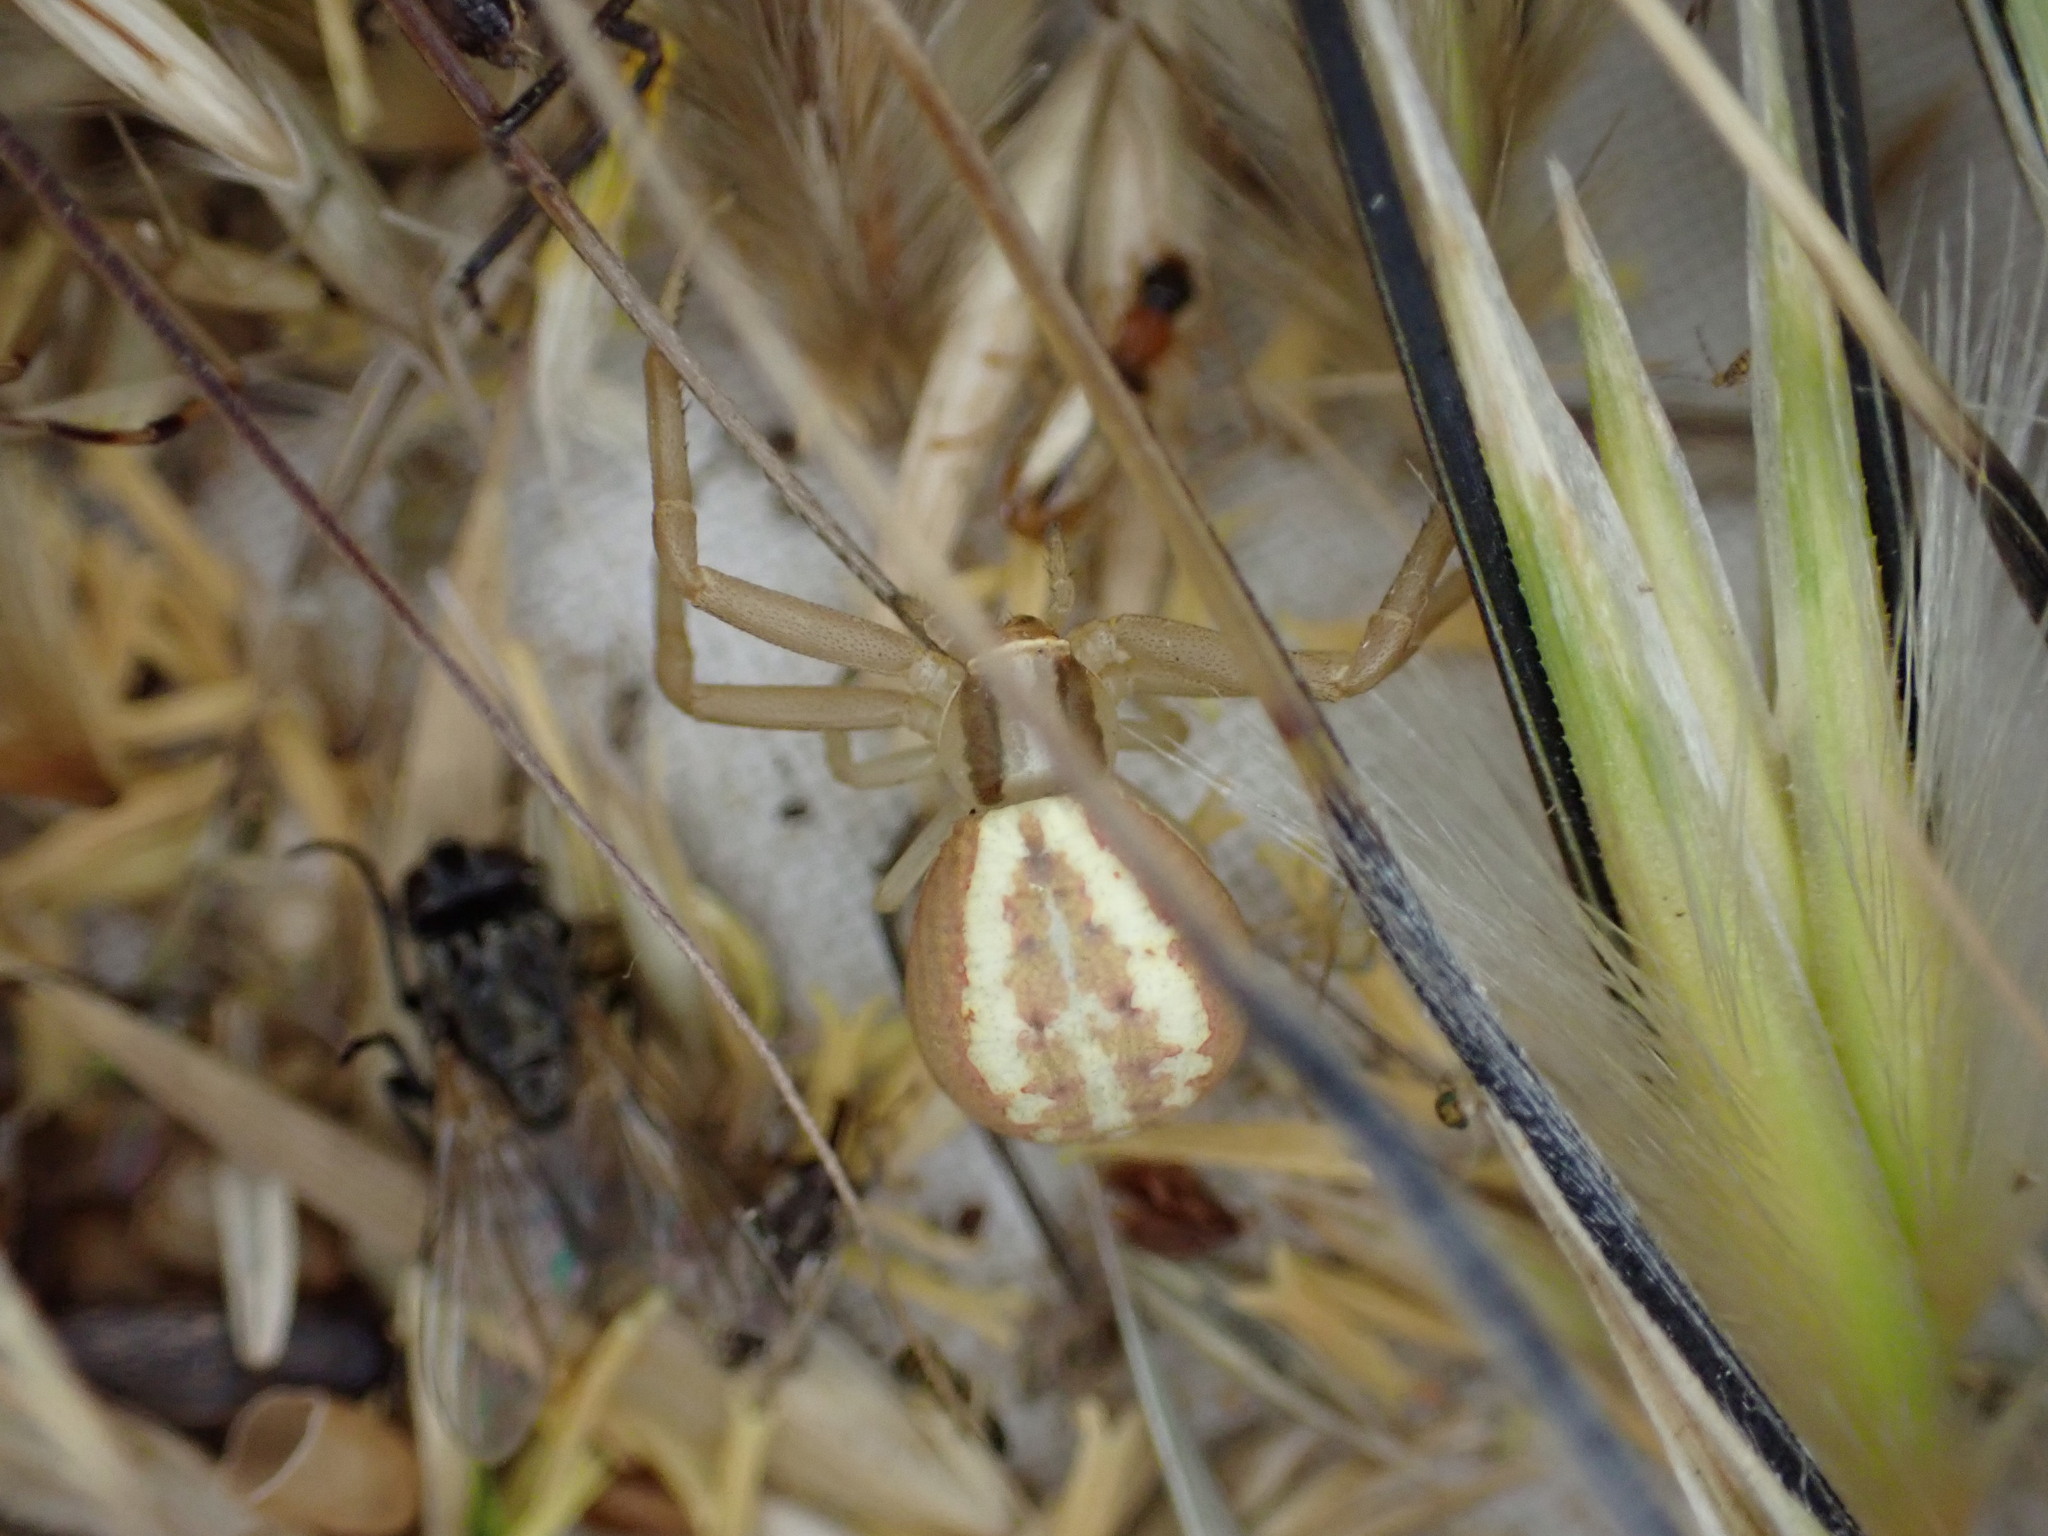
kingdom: Animalia
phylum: Arthropoda
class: Arachnida
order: Araneae
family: Thomisidae
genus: Runcinia
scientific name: Runcinia grammica
